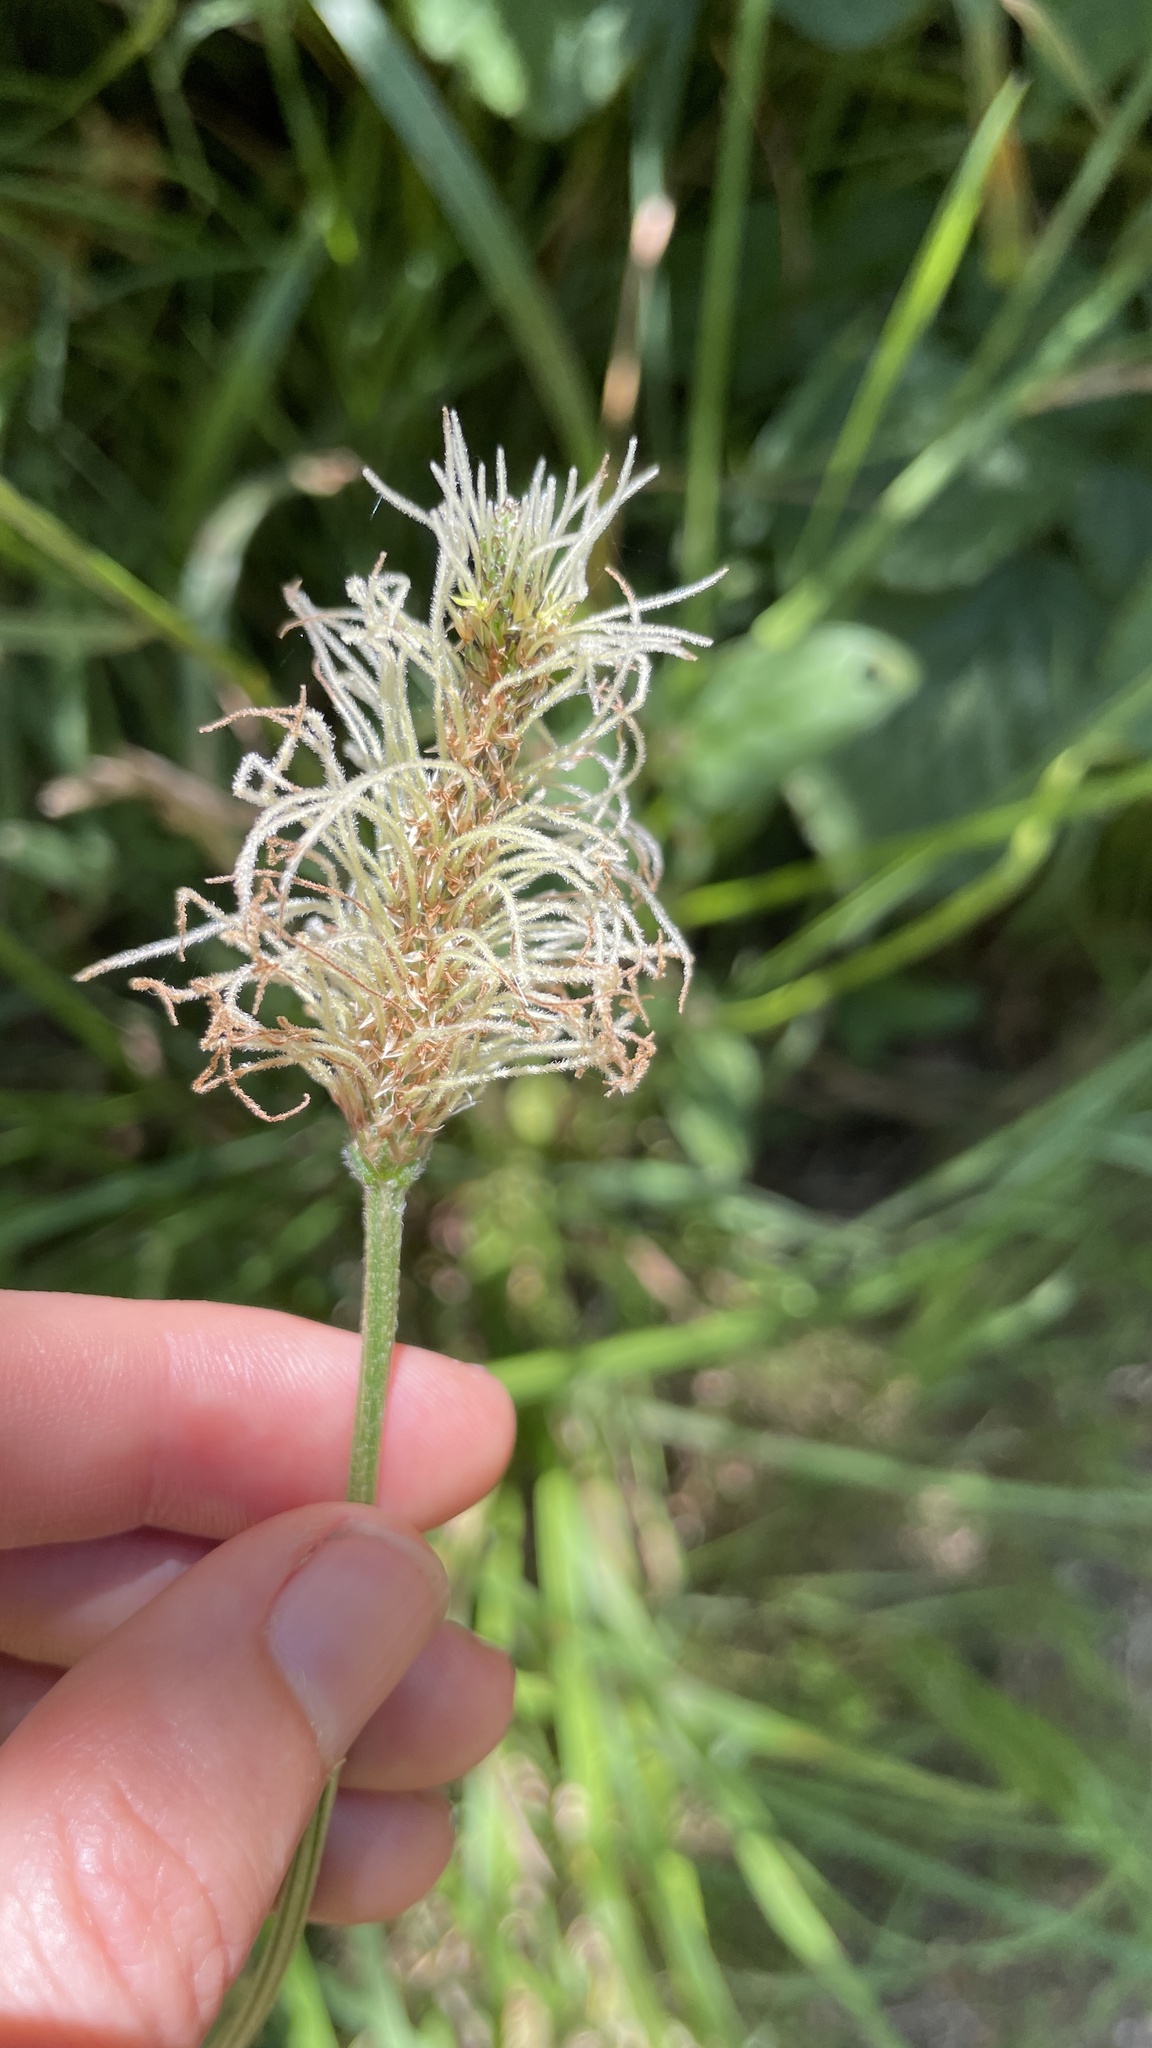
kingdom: Plantae
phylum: Tracheophyta
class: Magnoliopsida
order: Lamiales
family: Plantaginaceae
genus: Plantago
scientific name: Plantago lanceolata
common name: Ribwort plantain
